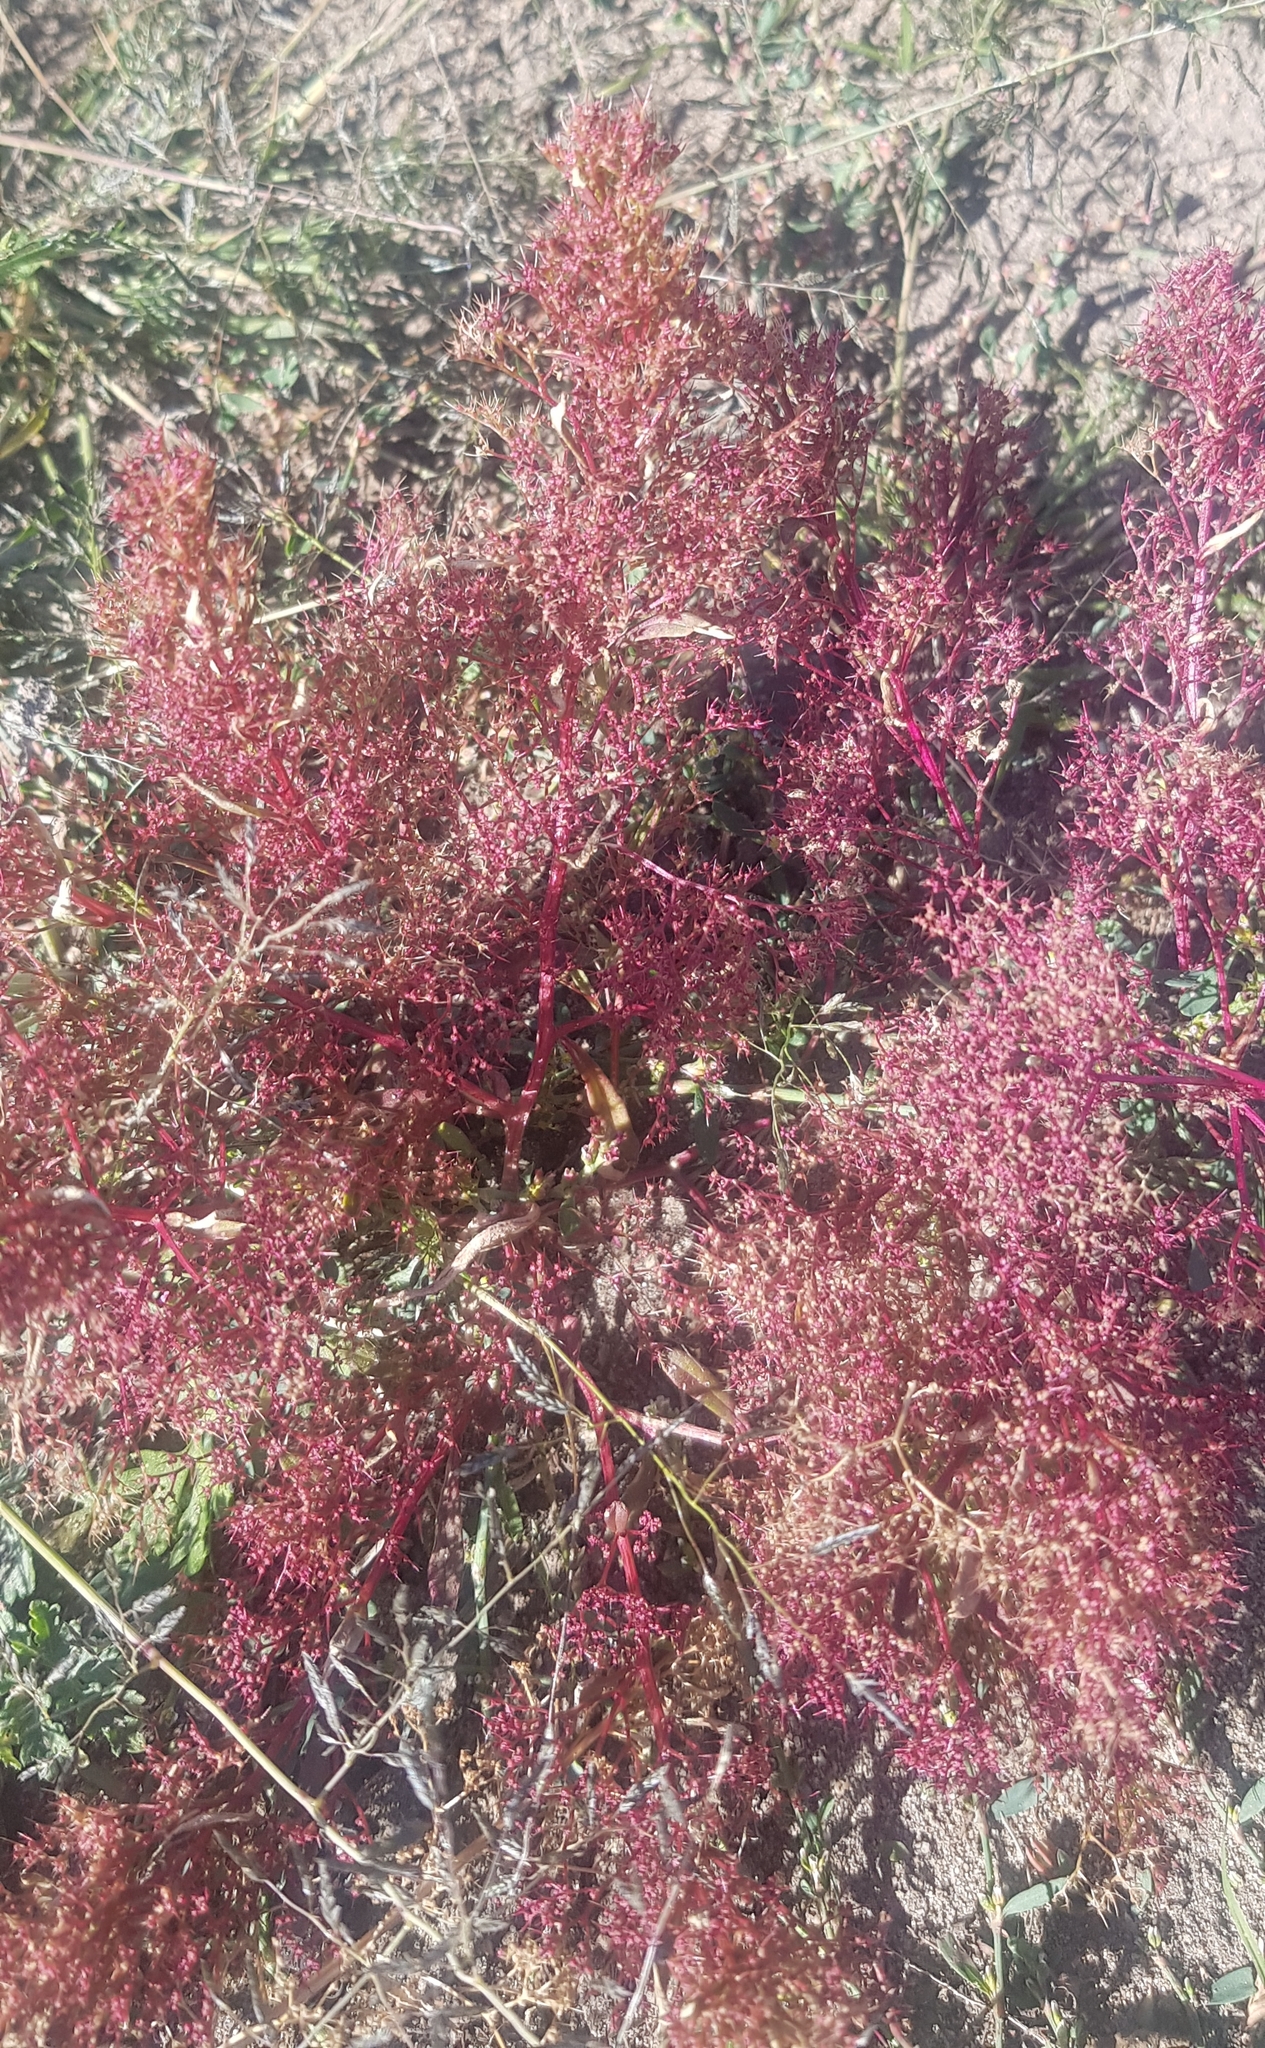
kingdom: Plantae
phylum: Tracheophyta
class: Magnoliopsida
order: Caryophyllales
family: Amaranthaceae
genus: Teloxys
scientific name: Teloxys aristata
